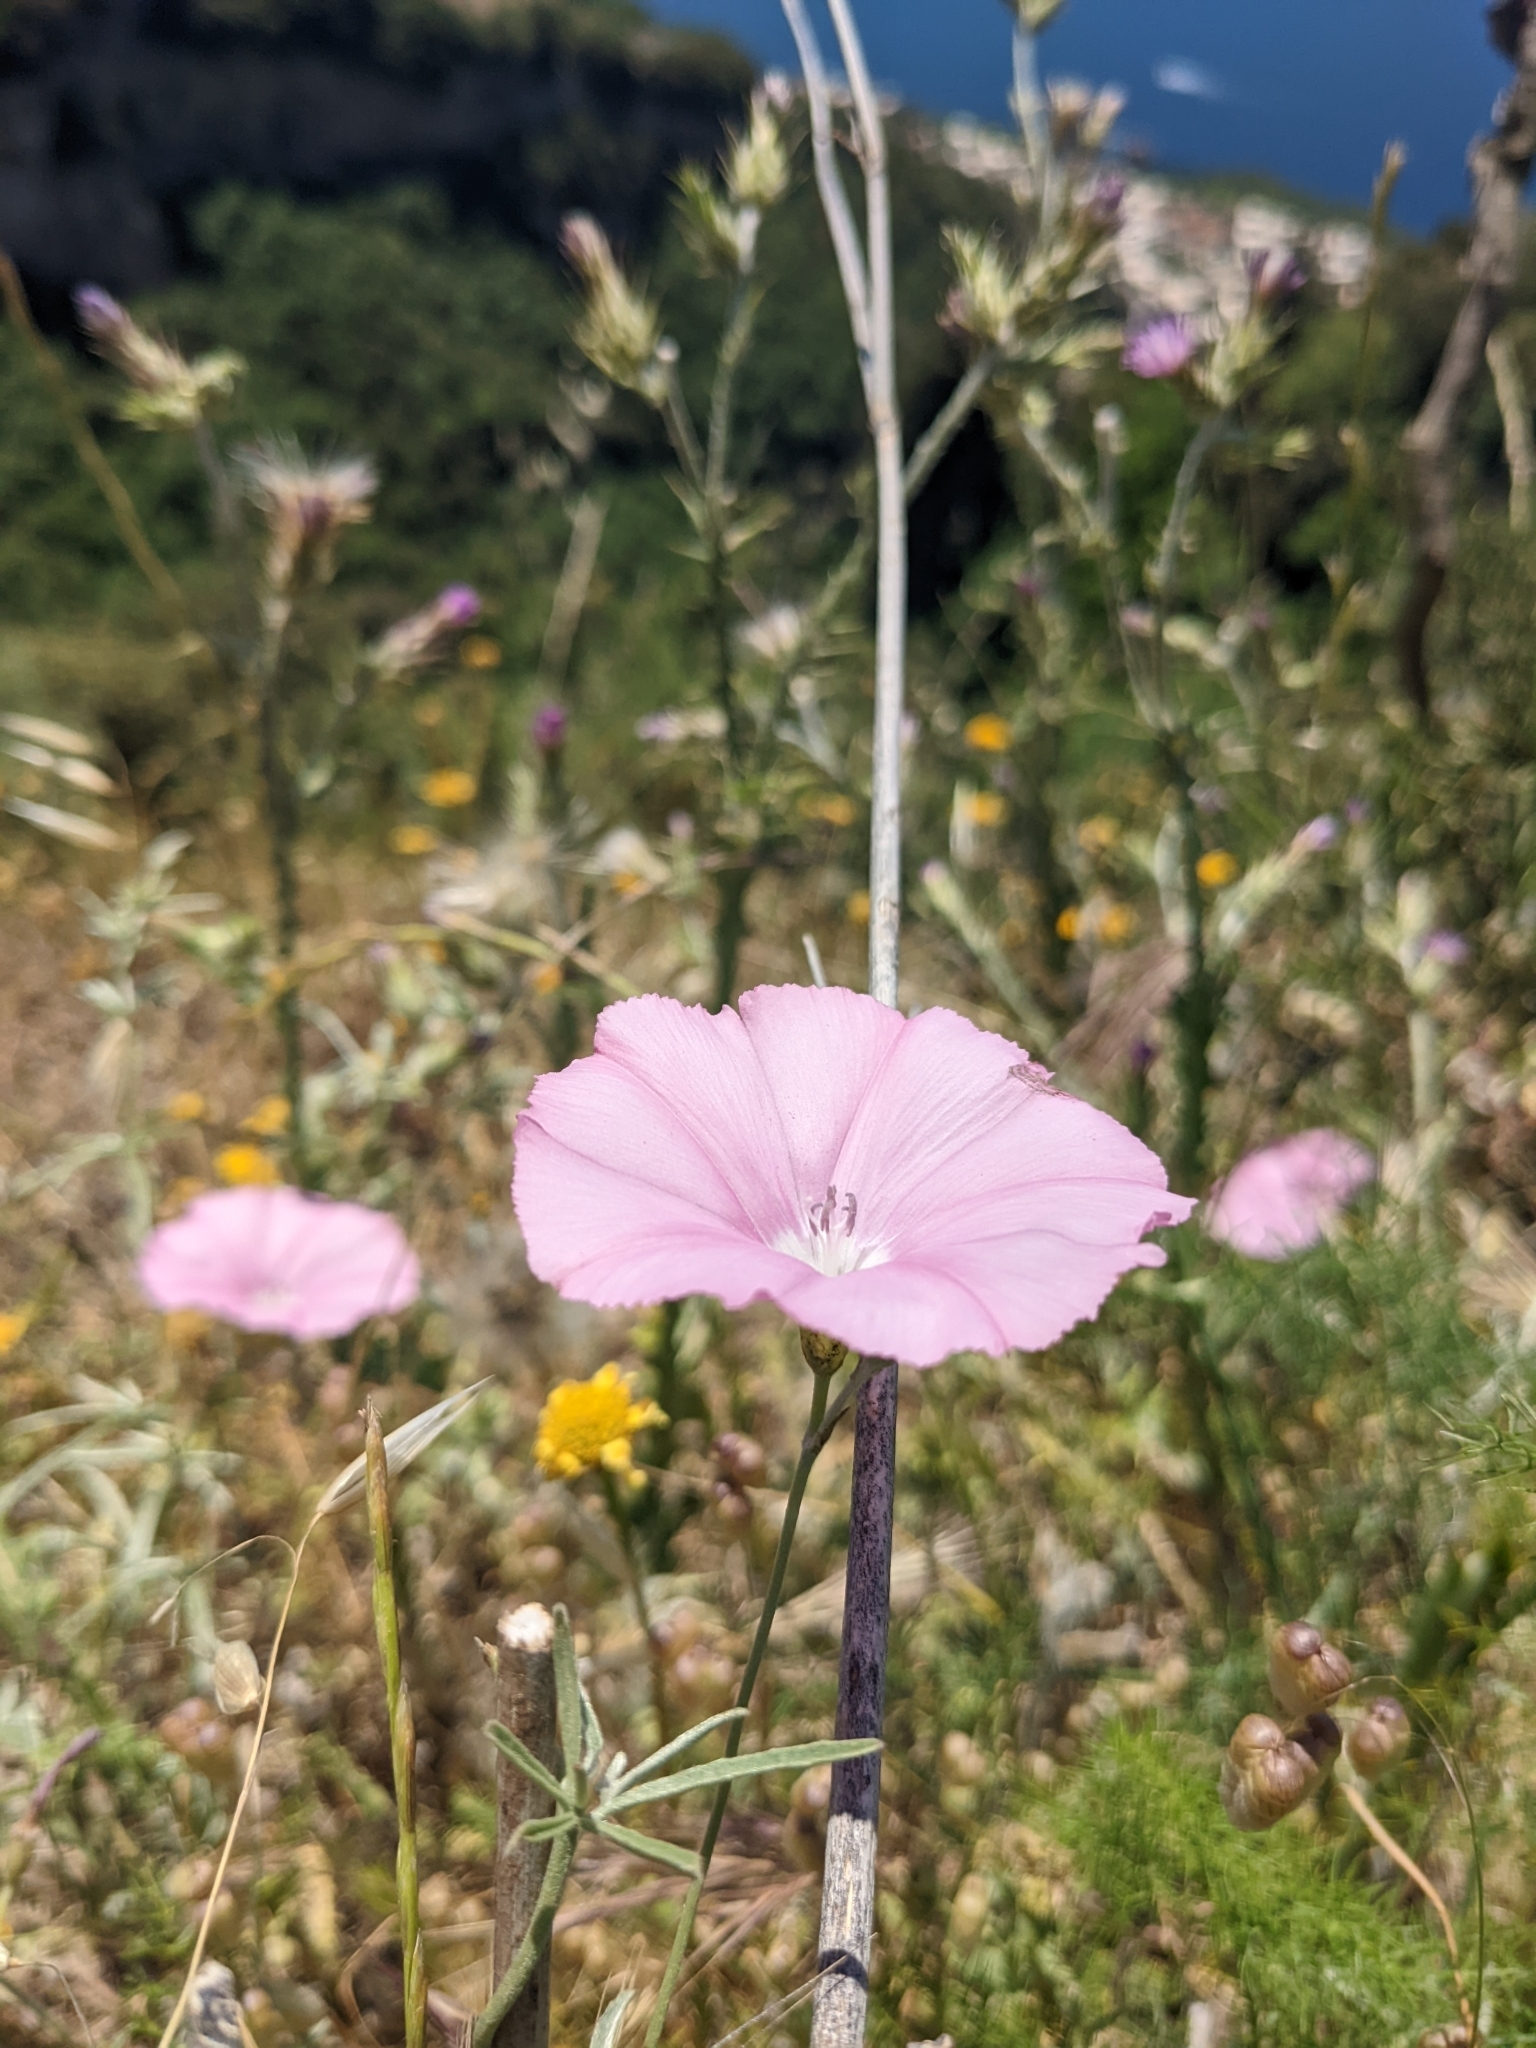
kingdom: Plantae
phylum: Tracheophyta
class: Magnoliopsida
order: Solanales
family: Convolvulaceae
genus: Convolvulus
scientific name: Convolvulus elegantissimus
